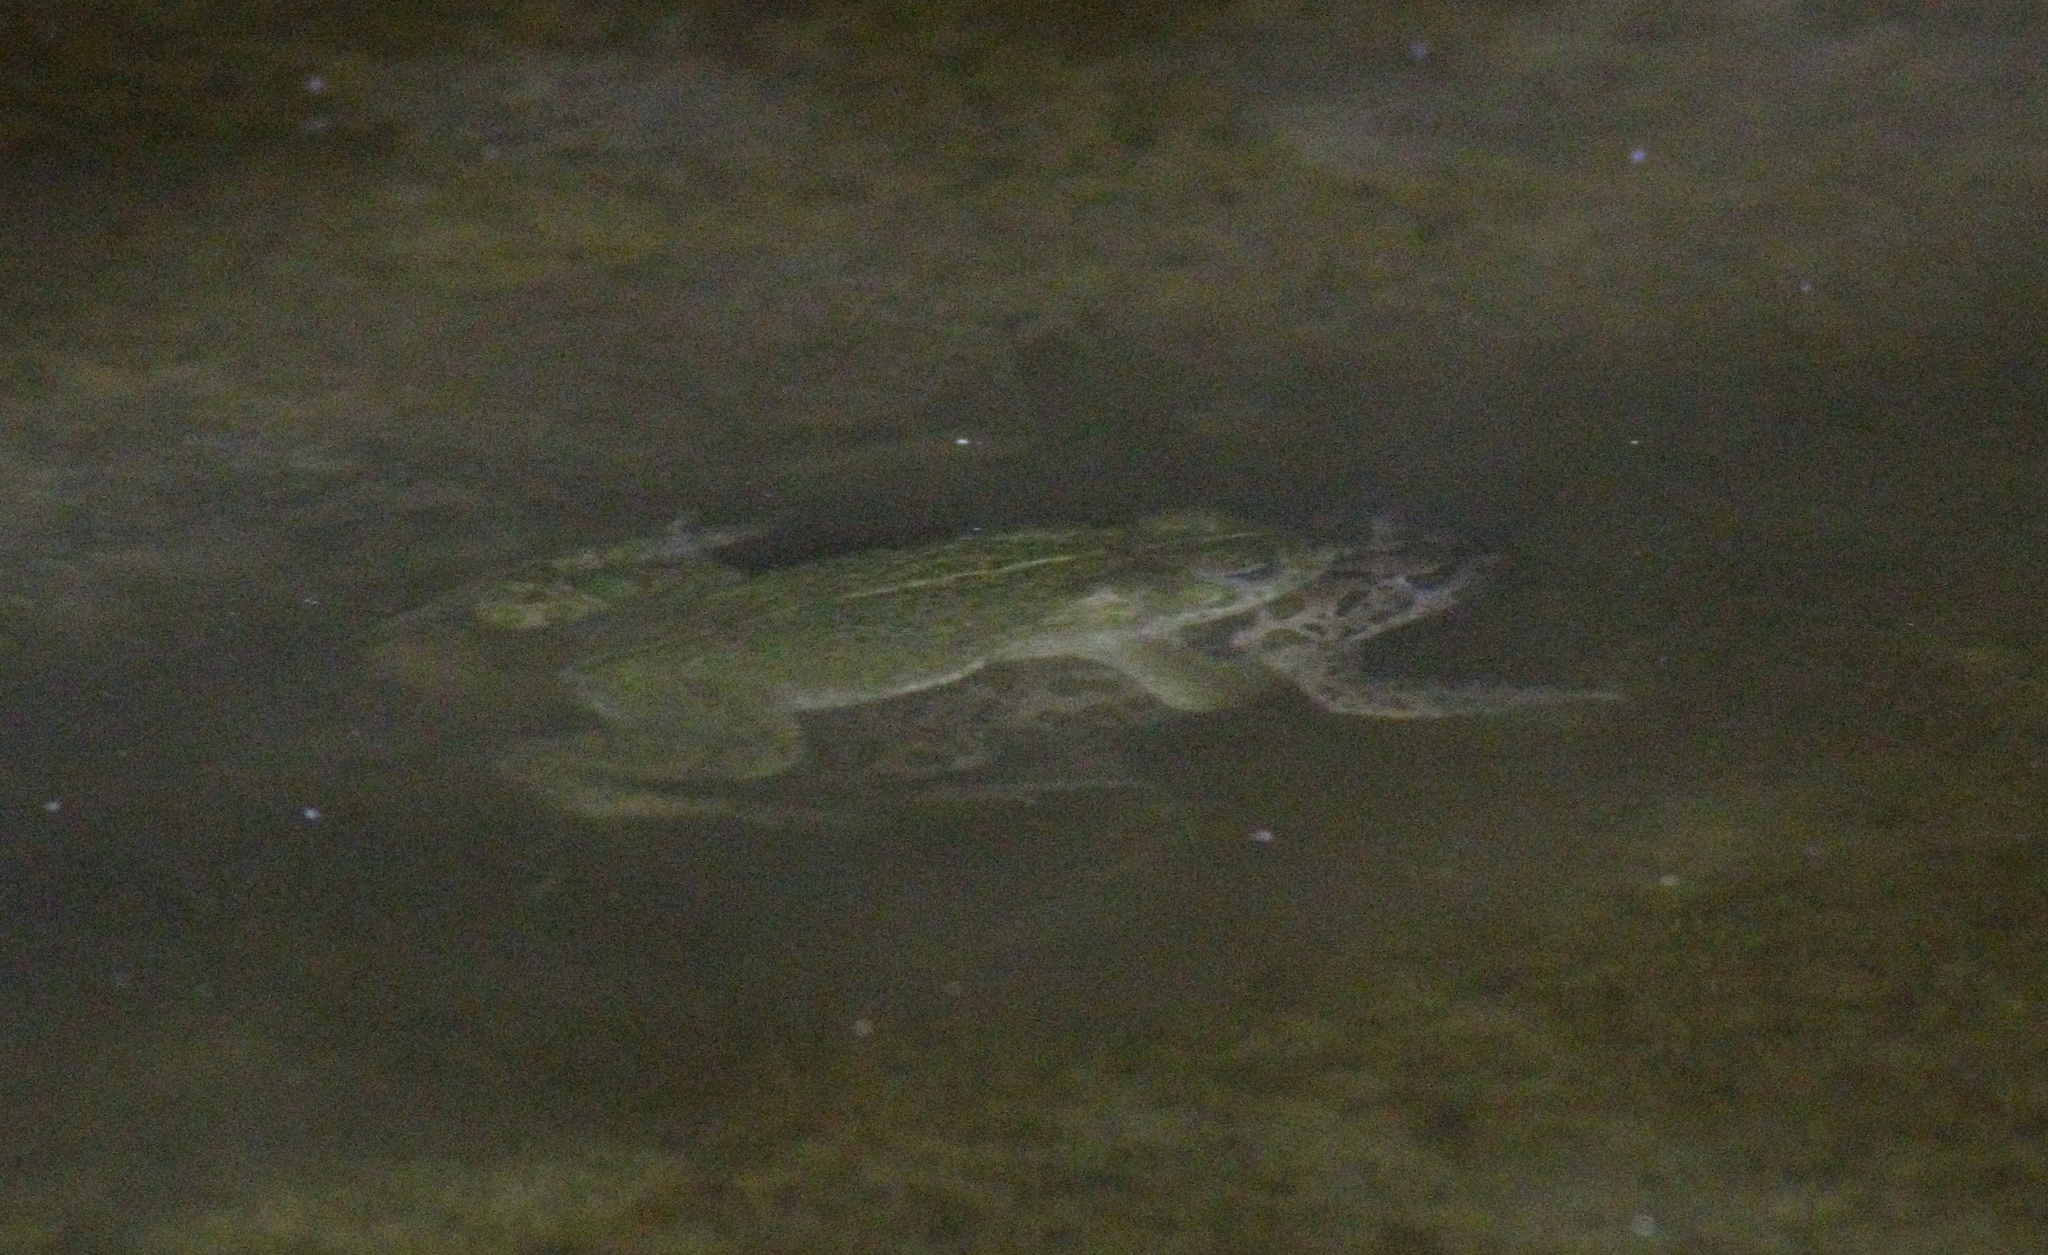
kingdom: Animalia
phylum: Chordata
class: Amphibia
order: Anura
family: Bufonidae
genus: Bufotes
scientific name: Bufotes boulengeri
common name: African green toad
